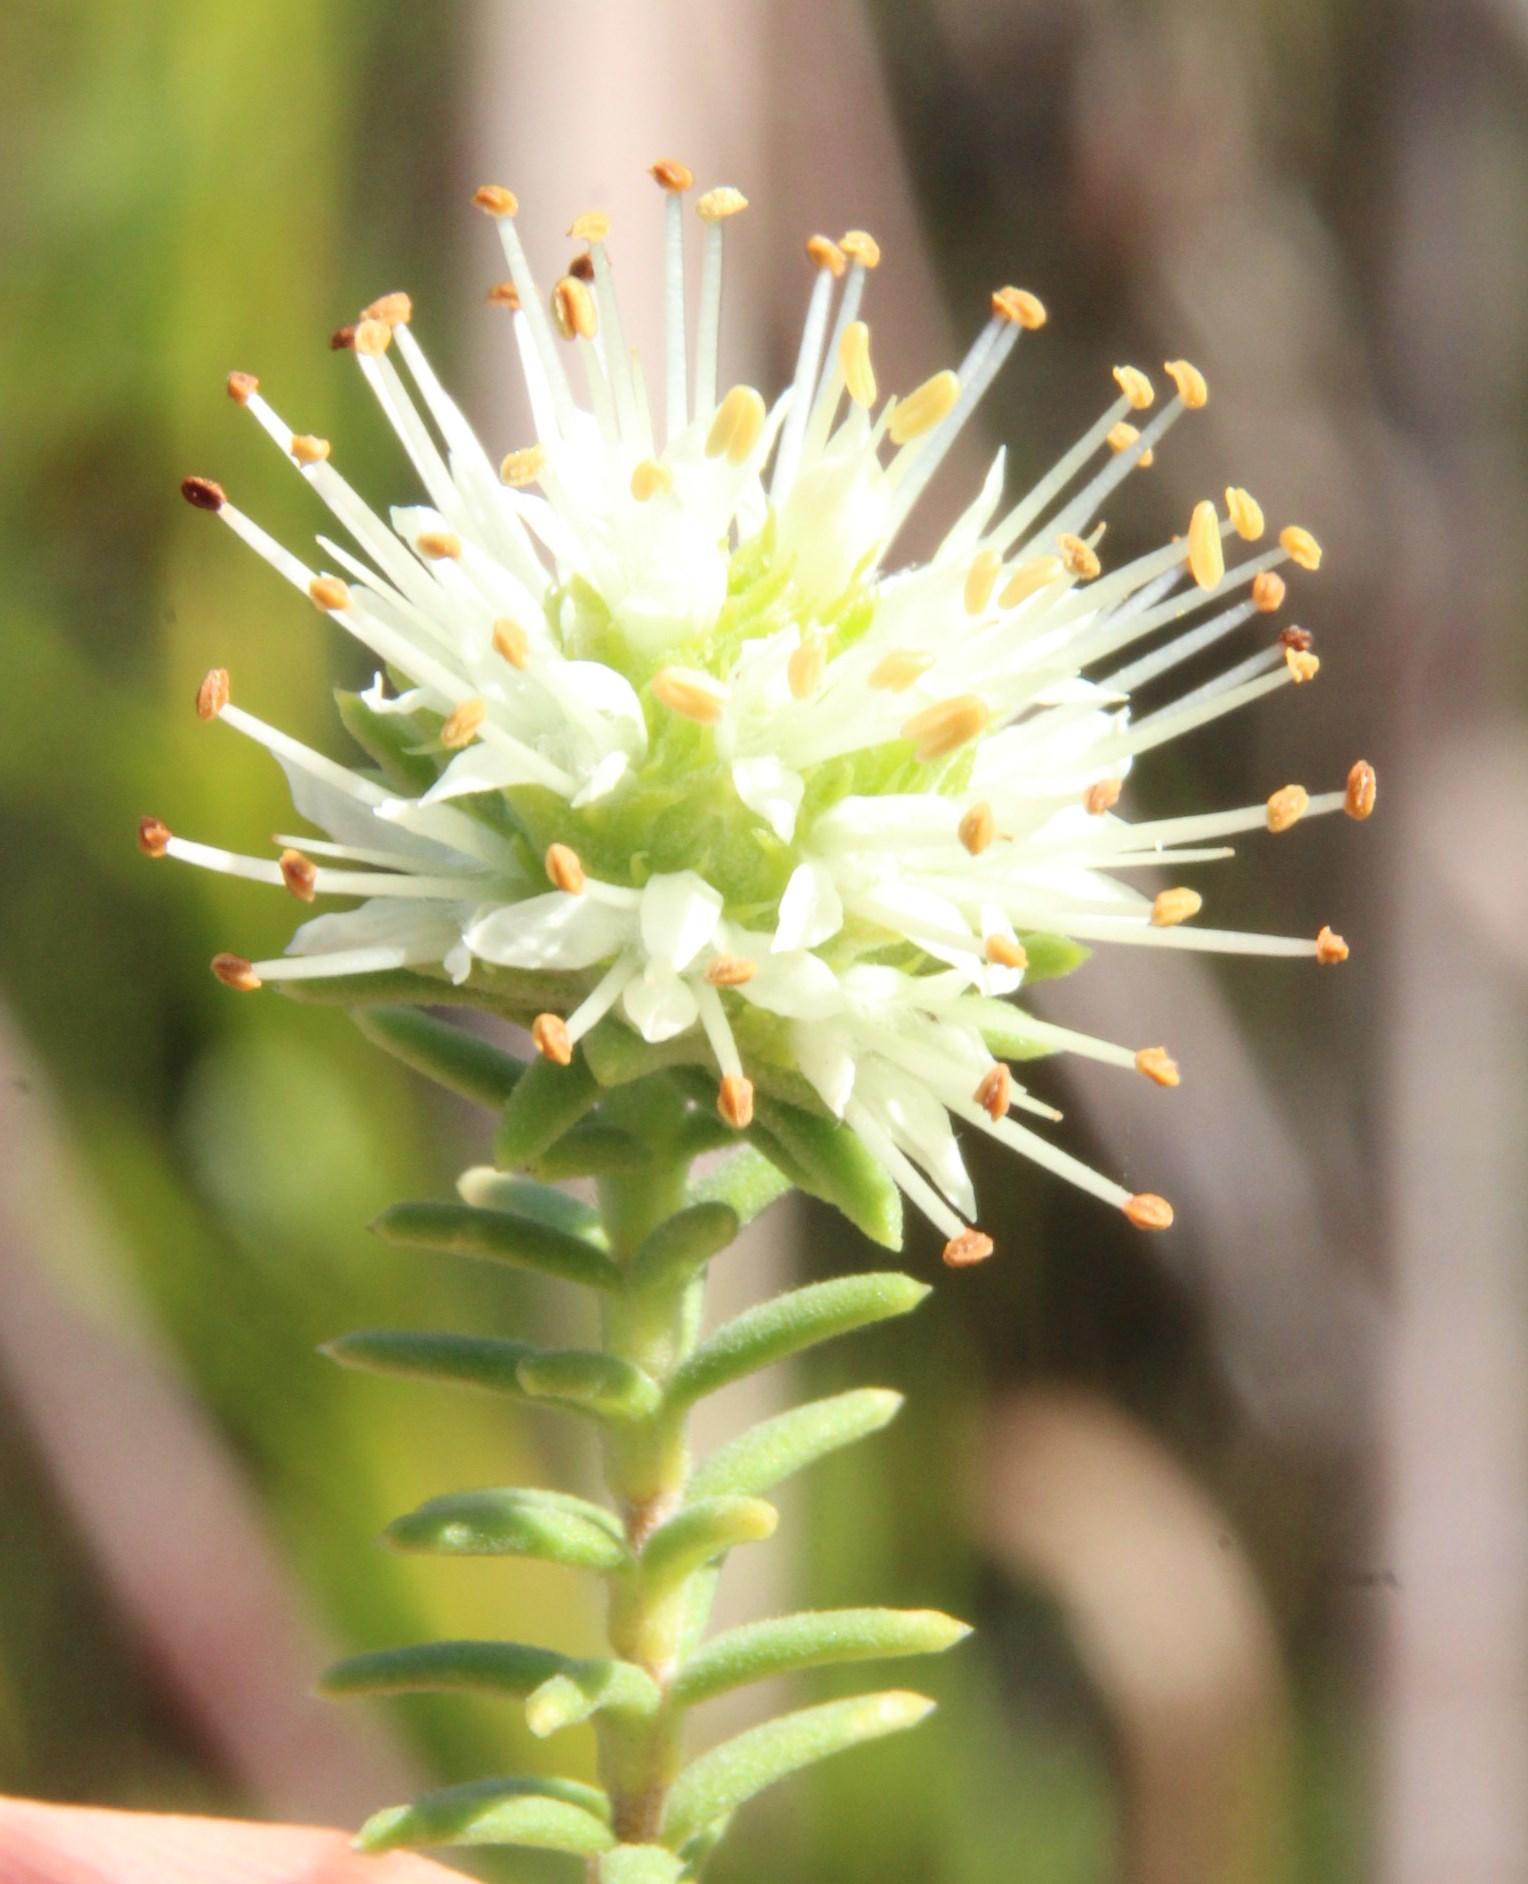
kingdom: Plantae
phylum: Tracheophyta
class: Magnoliopsida
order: Lamiales
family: Stilbaceae
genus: Campylostachys
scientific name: Campylostachys cernua
